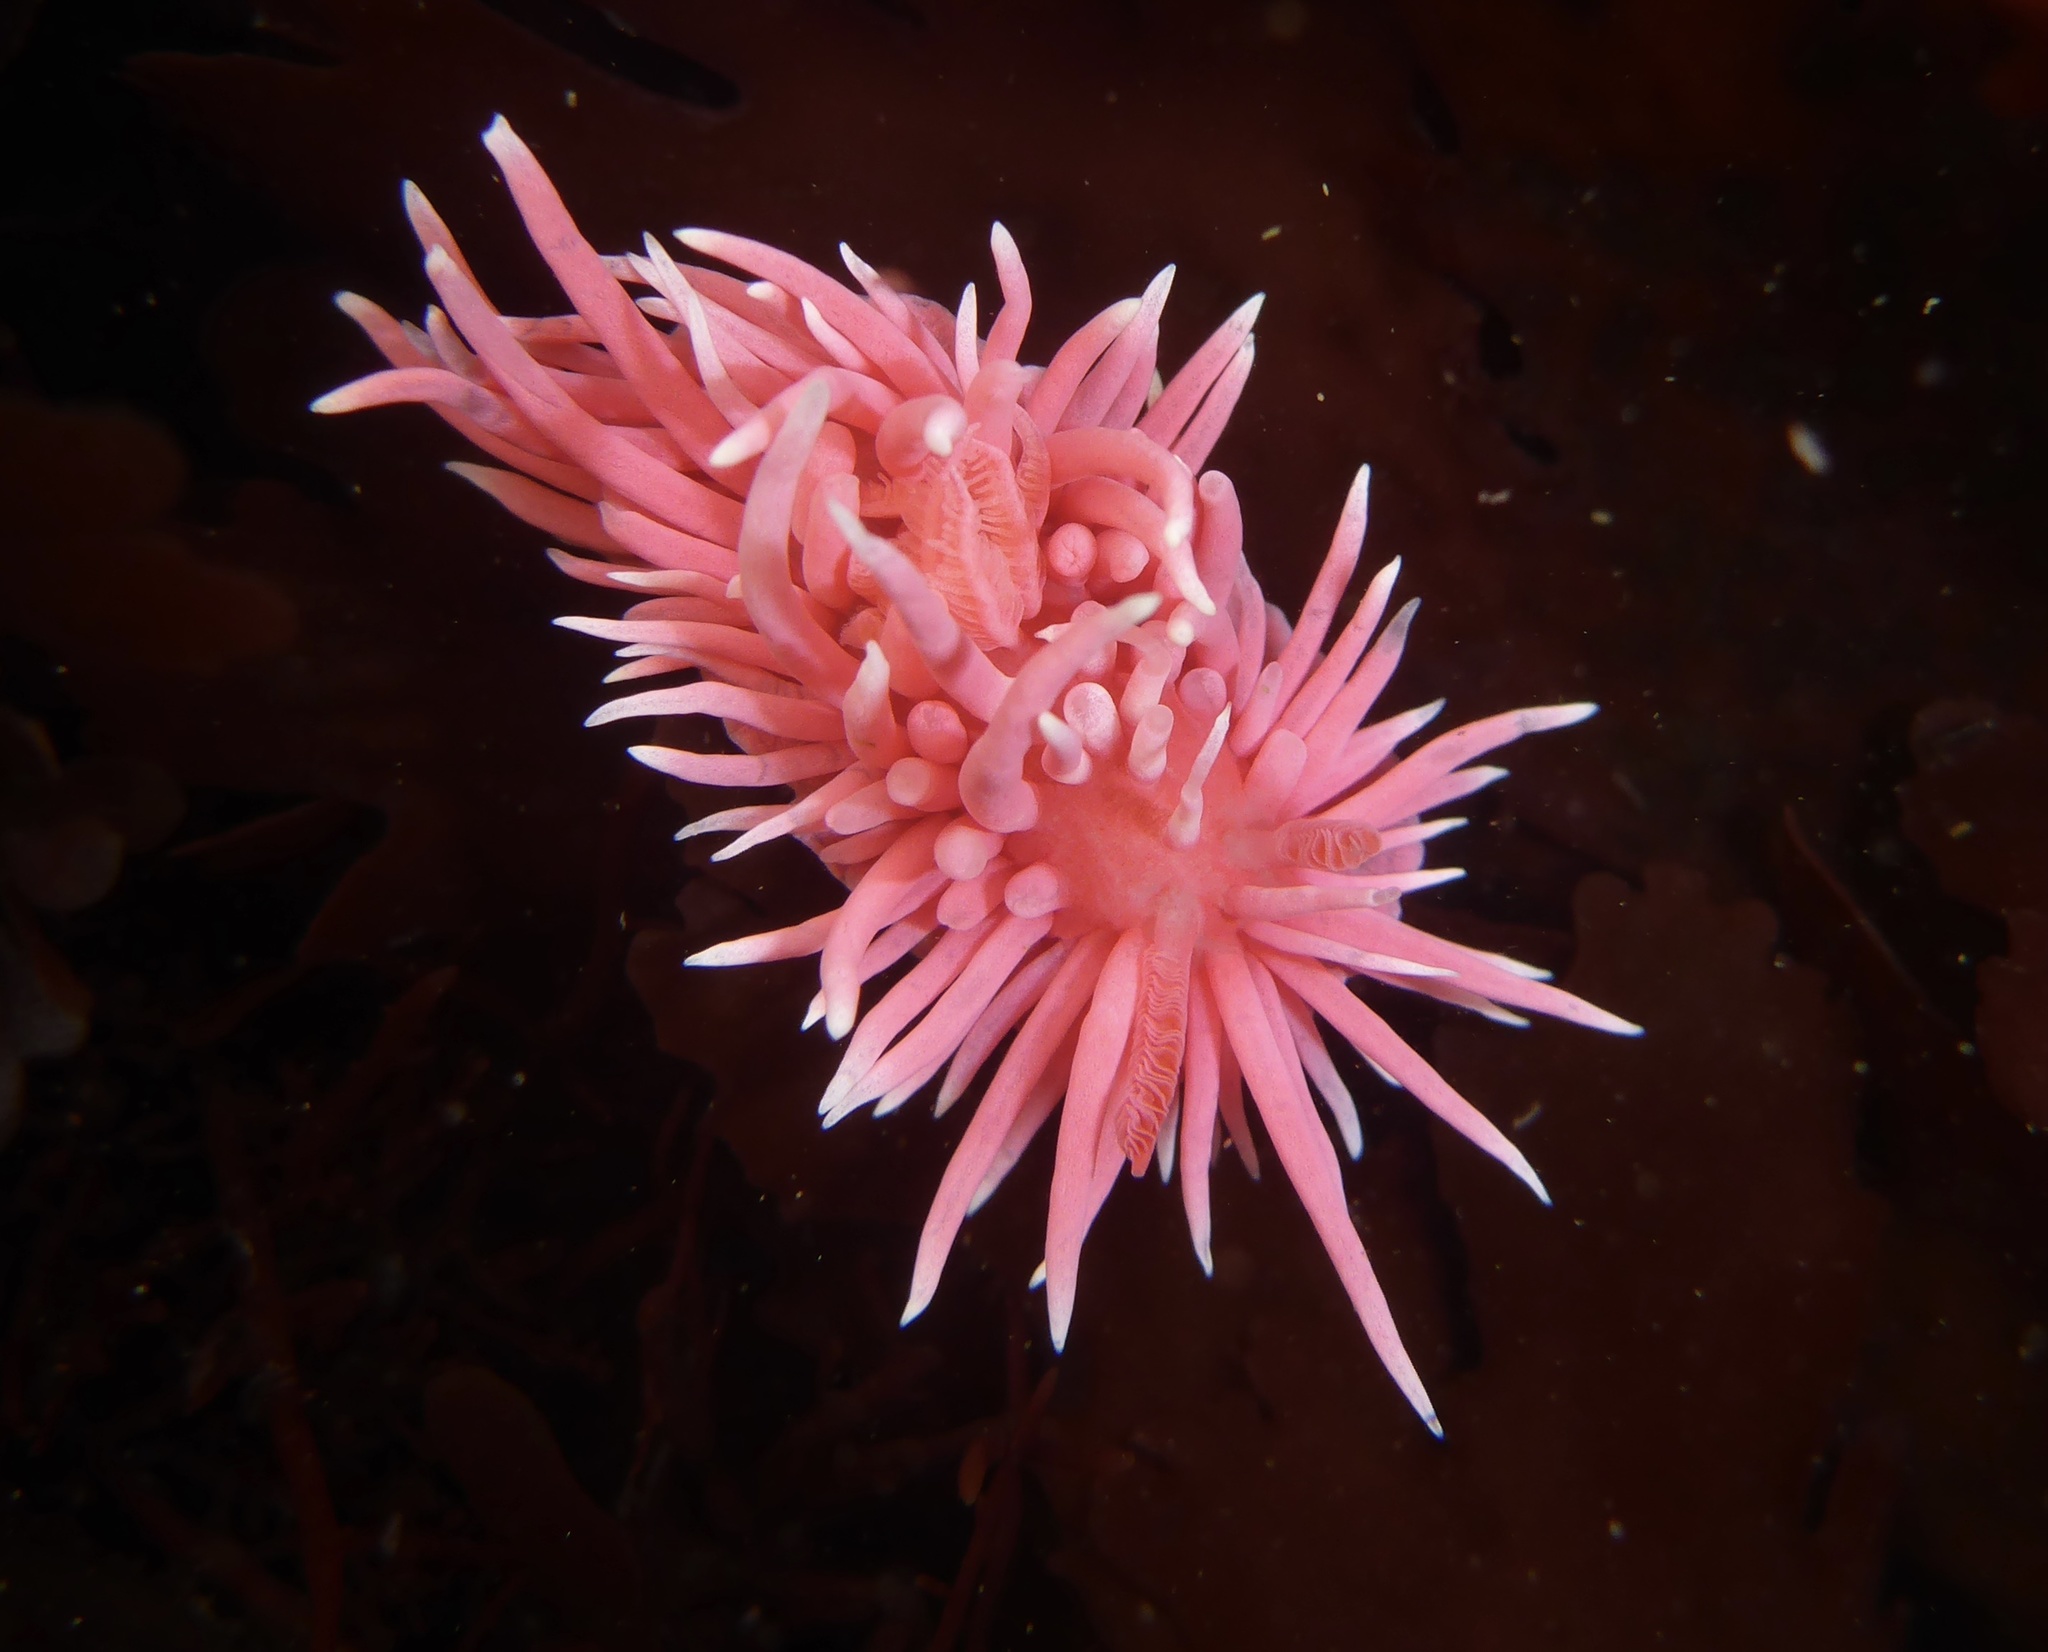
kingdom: Animalia
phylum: Mollusca
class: Gastropoda
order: Nudibranchia
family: Goniodorididae
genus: Okenia
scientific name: Okenia
